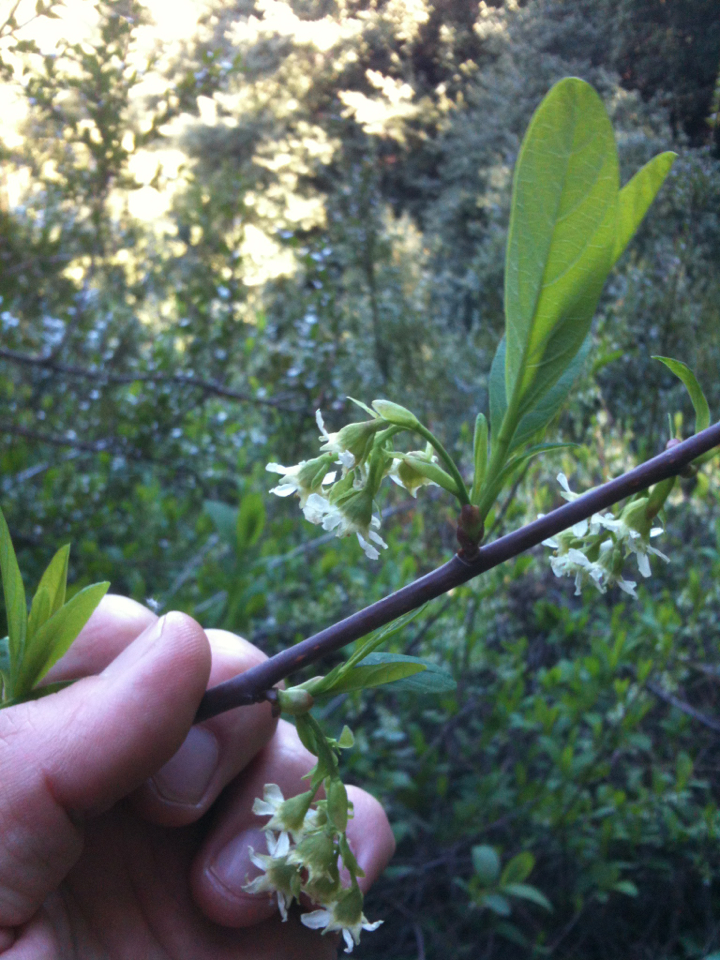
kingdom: Plantae
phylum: Tracheophyta
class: Magnoliopsida
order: Rosales
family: Rosaceae
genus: Oemleria
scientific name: Oemleria cerasiformis
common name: Osoberry
